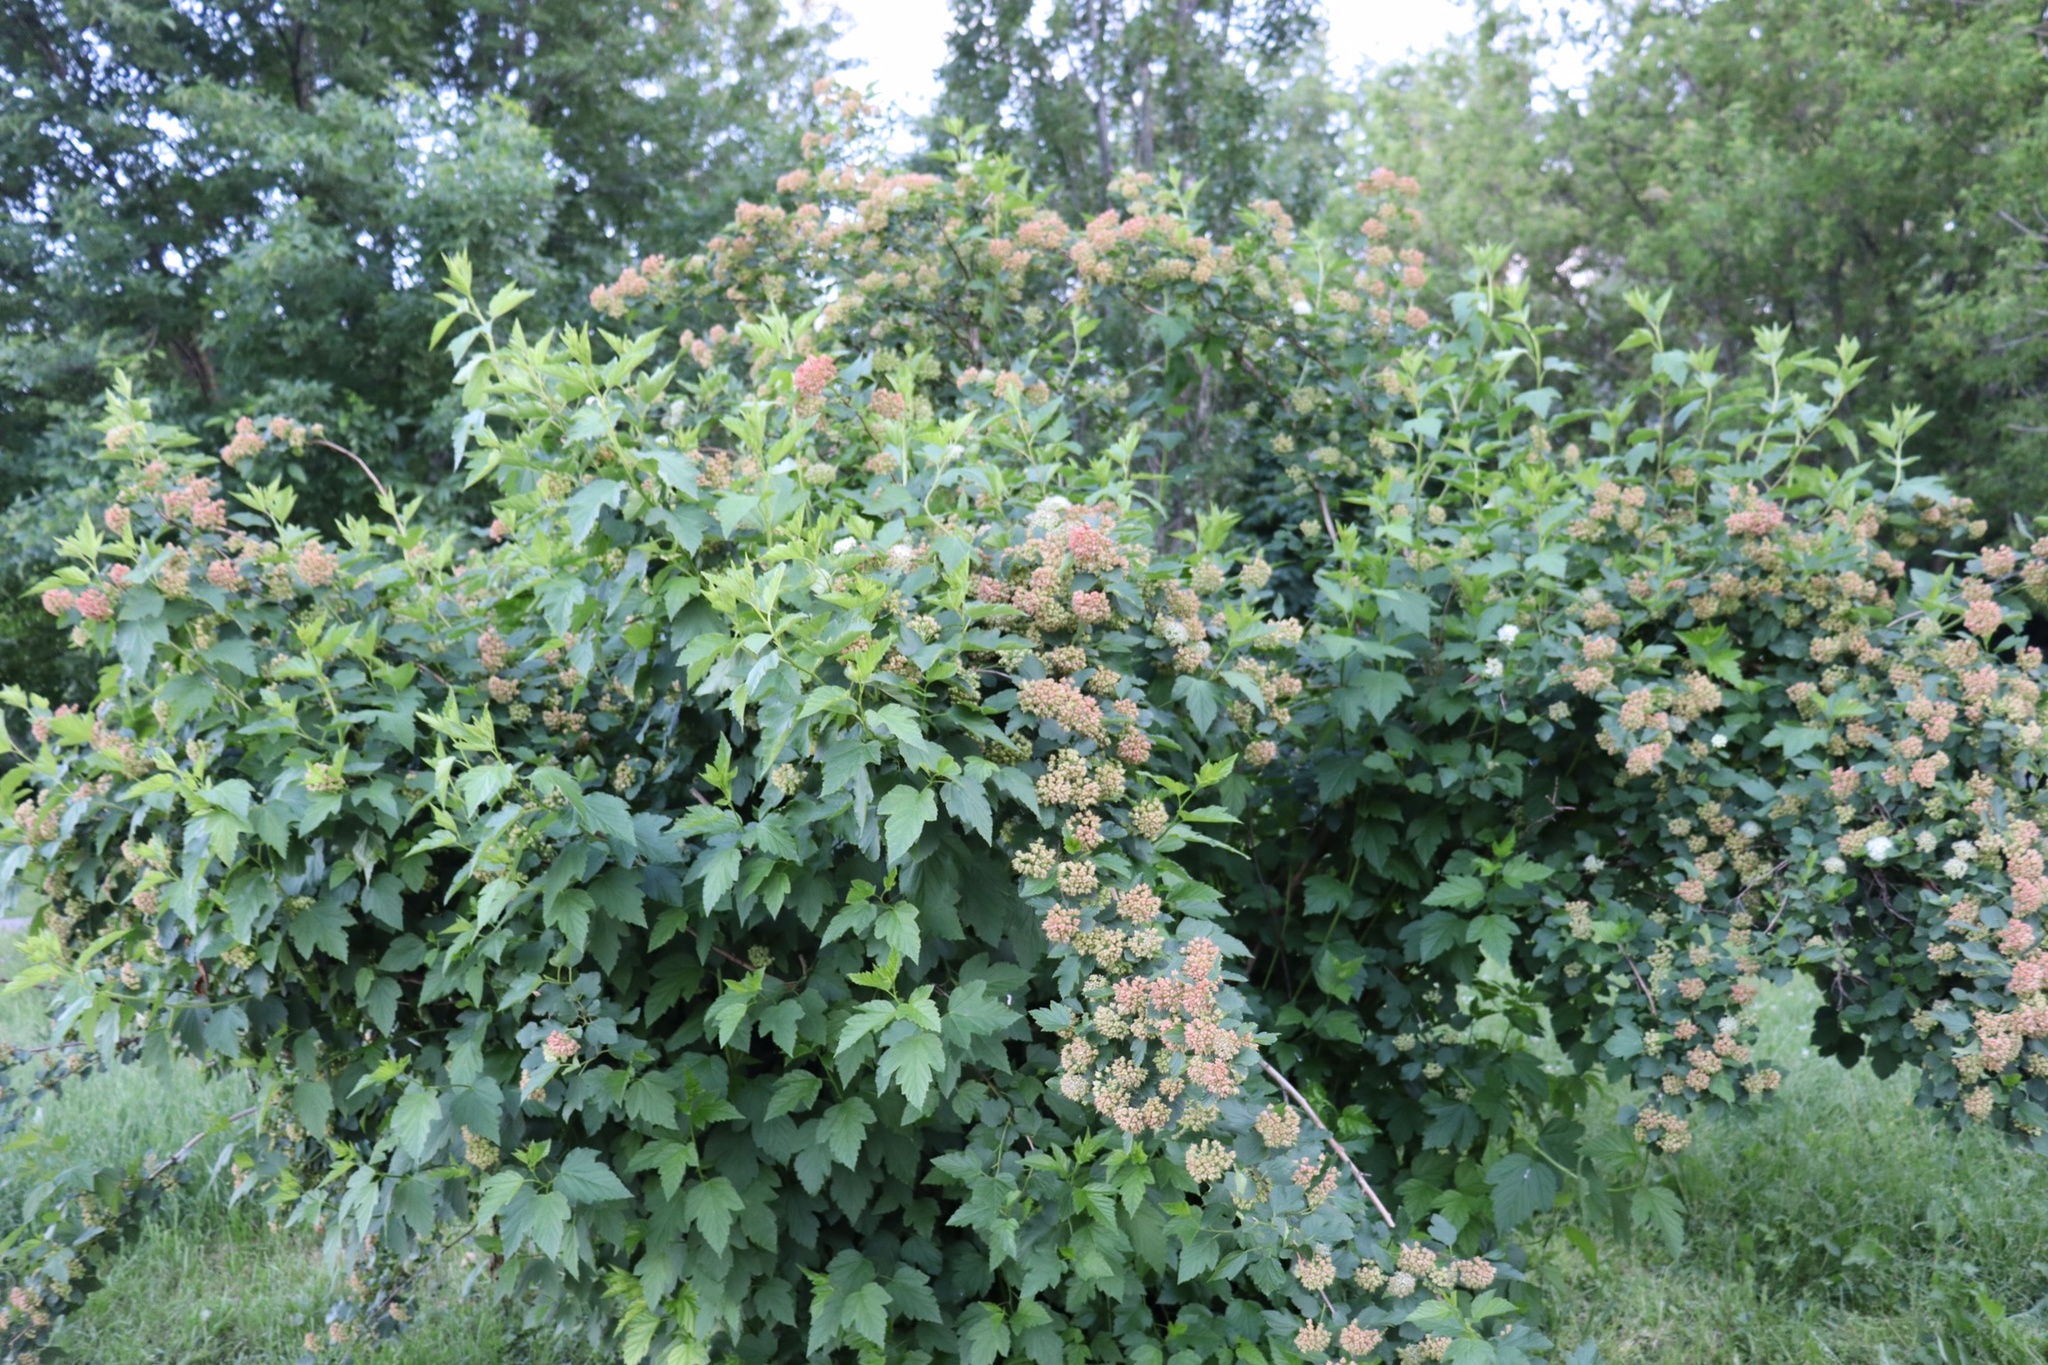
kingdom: Plantae
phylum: Tracheophyta
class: Magnoliopsida
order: Rosales
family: Rosaceae
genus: Physocarpus
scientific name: Physocarpus opulifolius
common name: Ninebark
